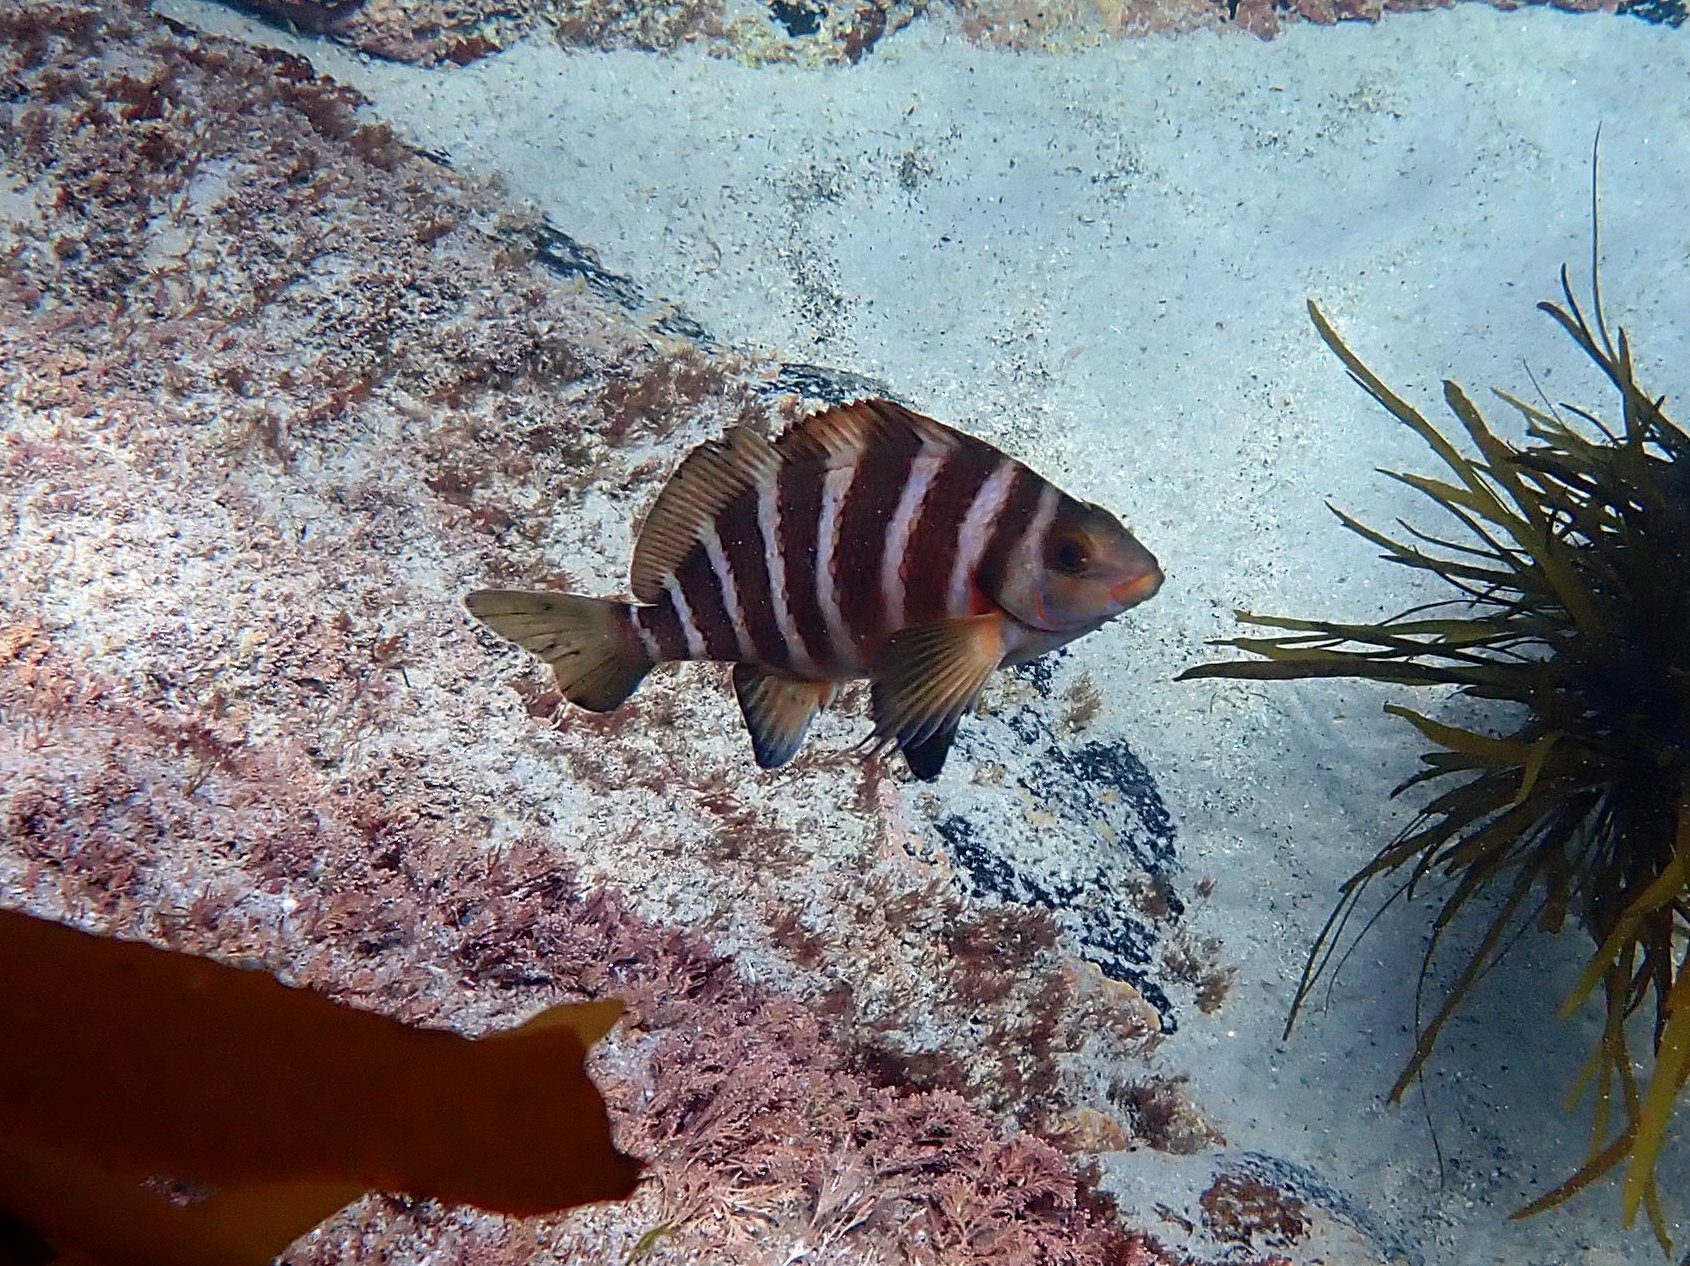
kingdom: Animalia
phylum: Chordata
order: Perciformes
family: Cheilodactylidae
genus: Cheilodactylus
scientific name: Cheilodactylus spectabilis
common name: Red moki
